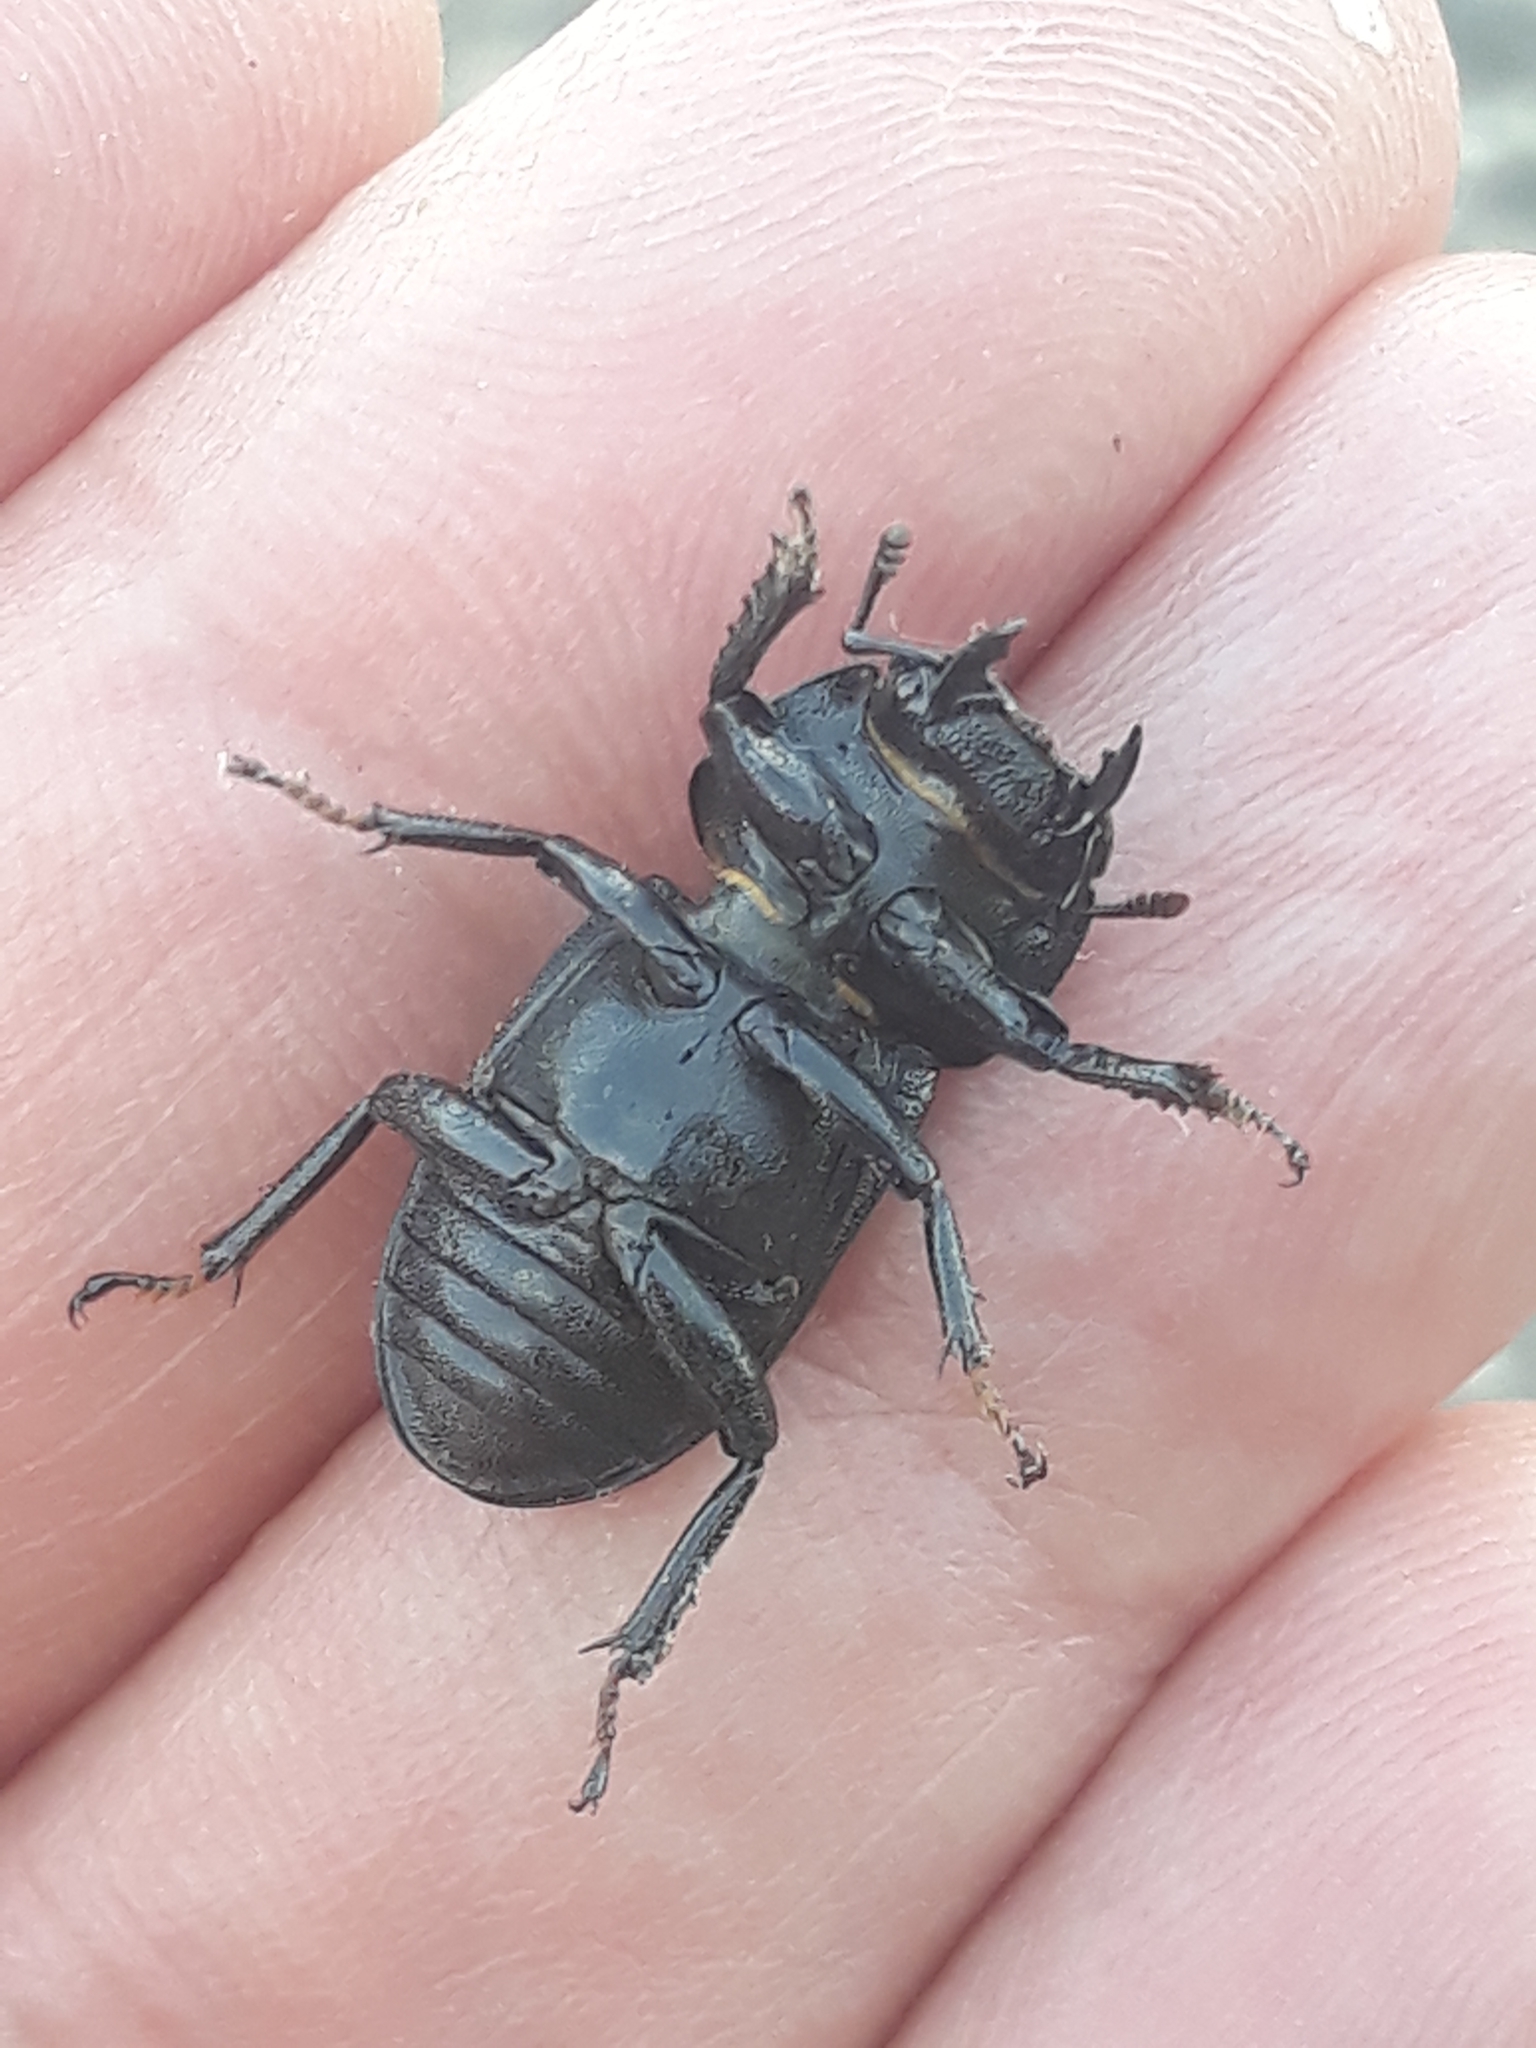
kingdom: Animalia
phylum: Arthropoda
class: Insecta
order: Coleoptera
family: Lucanidae
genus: Dorcus
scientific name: Dorcus parallelipipedus
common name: Lesser stag beetle
